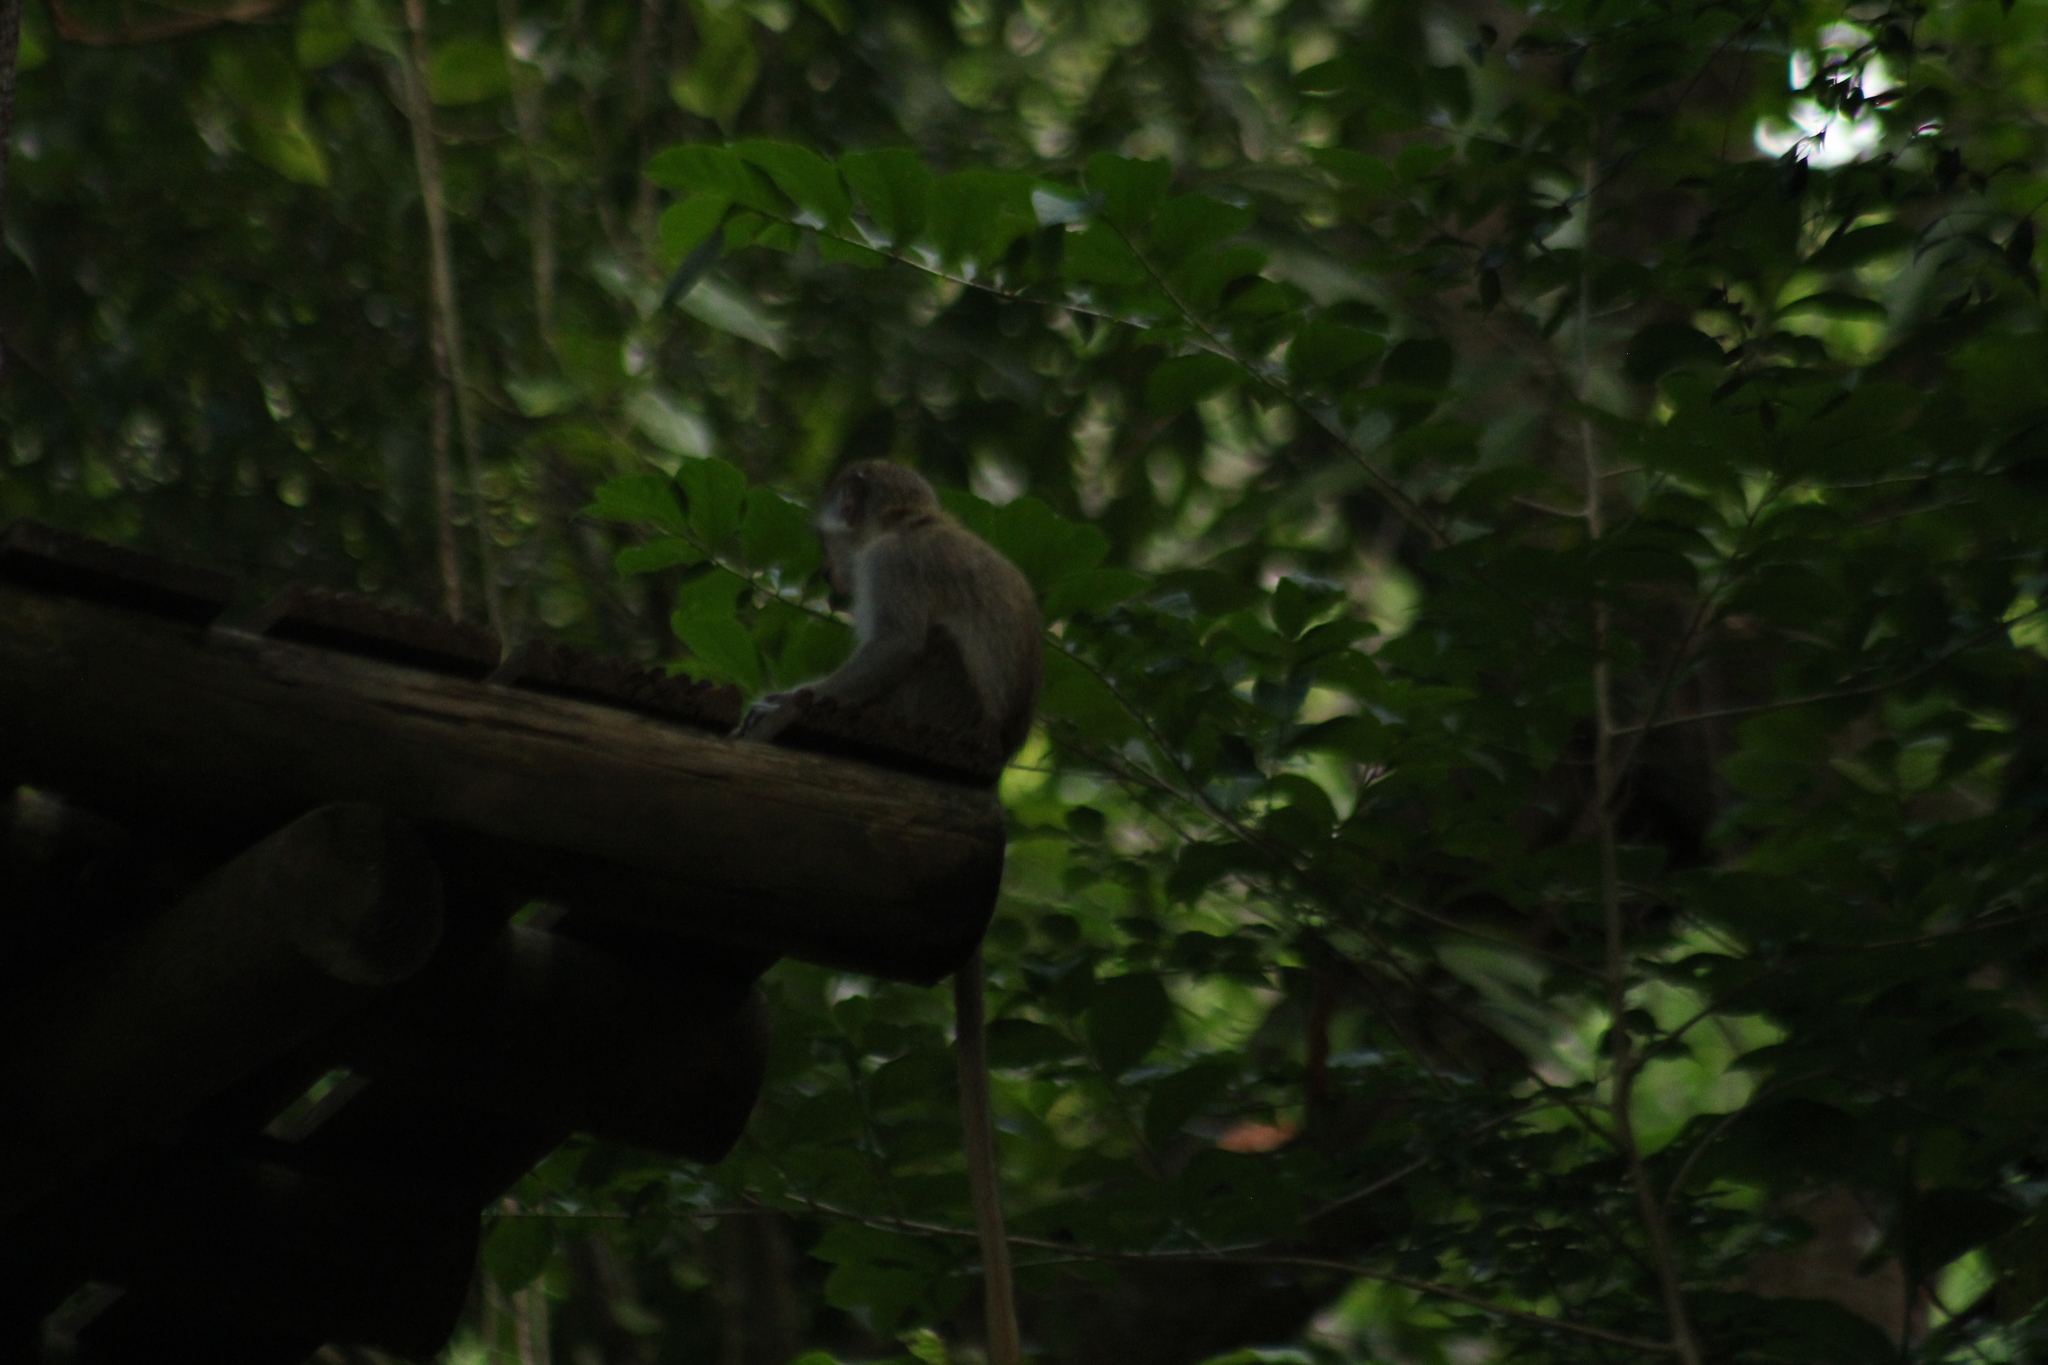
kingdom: Animalia
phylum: Chordata
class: Mammalia
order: Primates
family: Cercopithecidae
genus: Chlorocebus
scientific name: Chlorocebus sabaeus
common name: Green monkey
